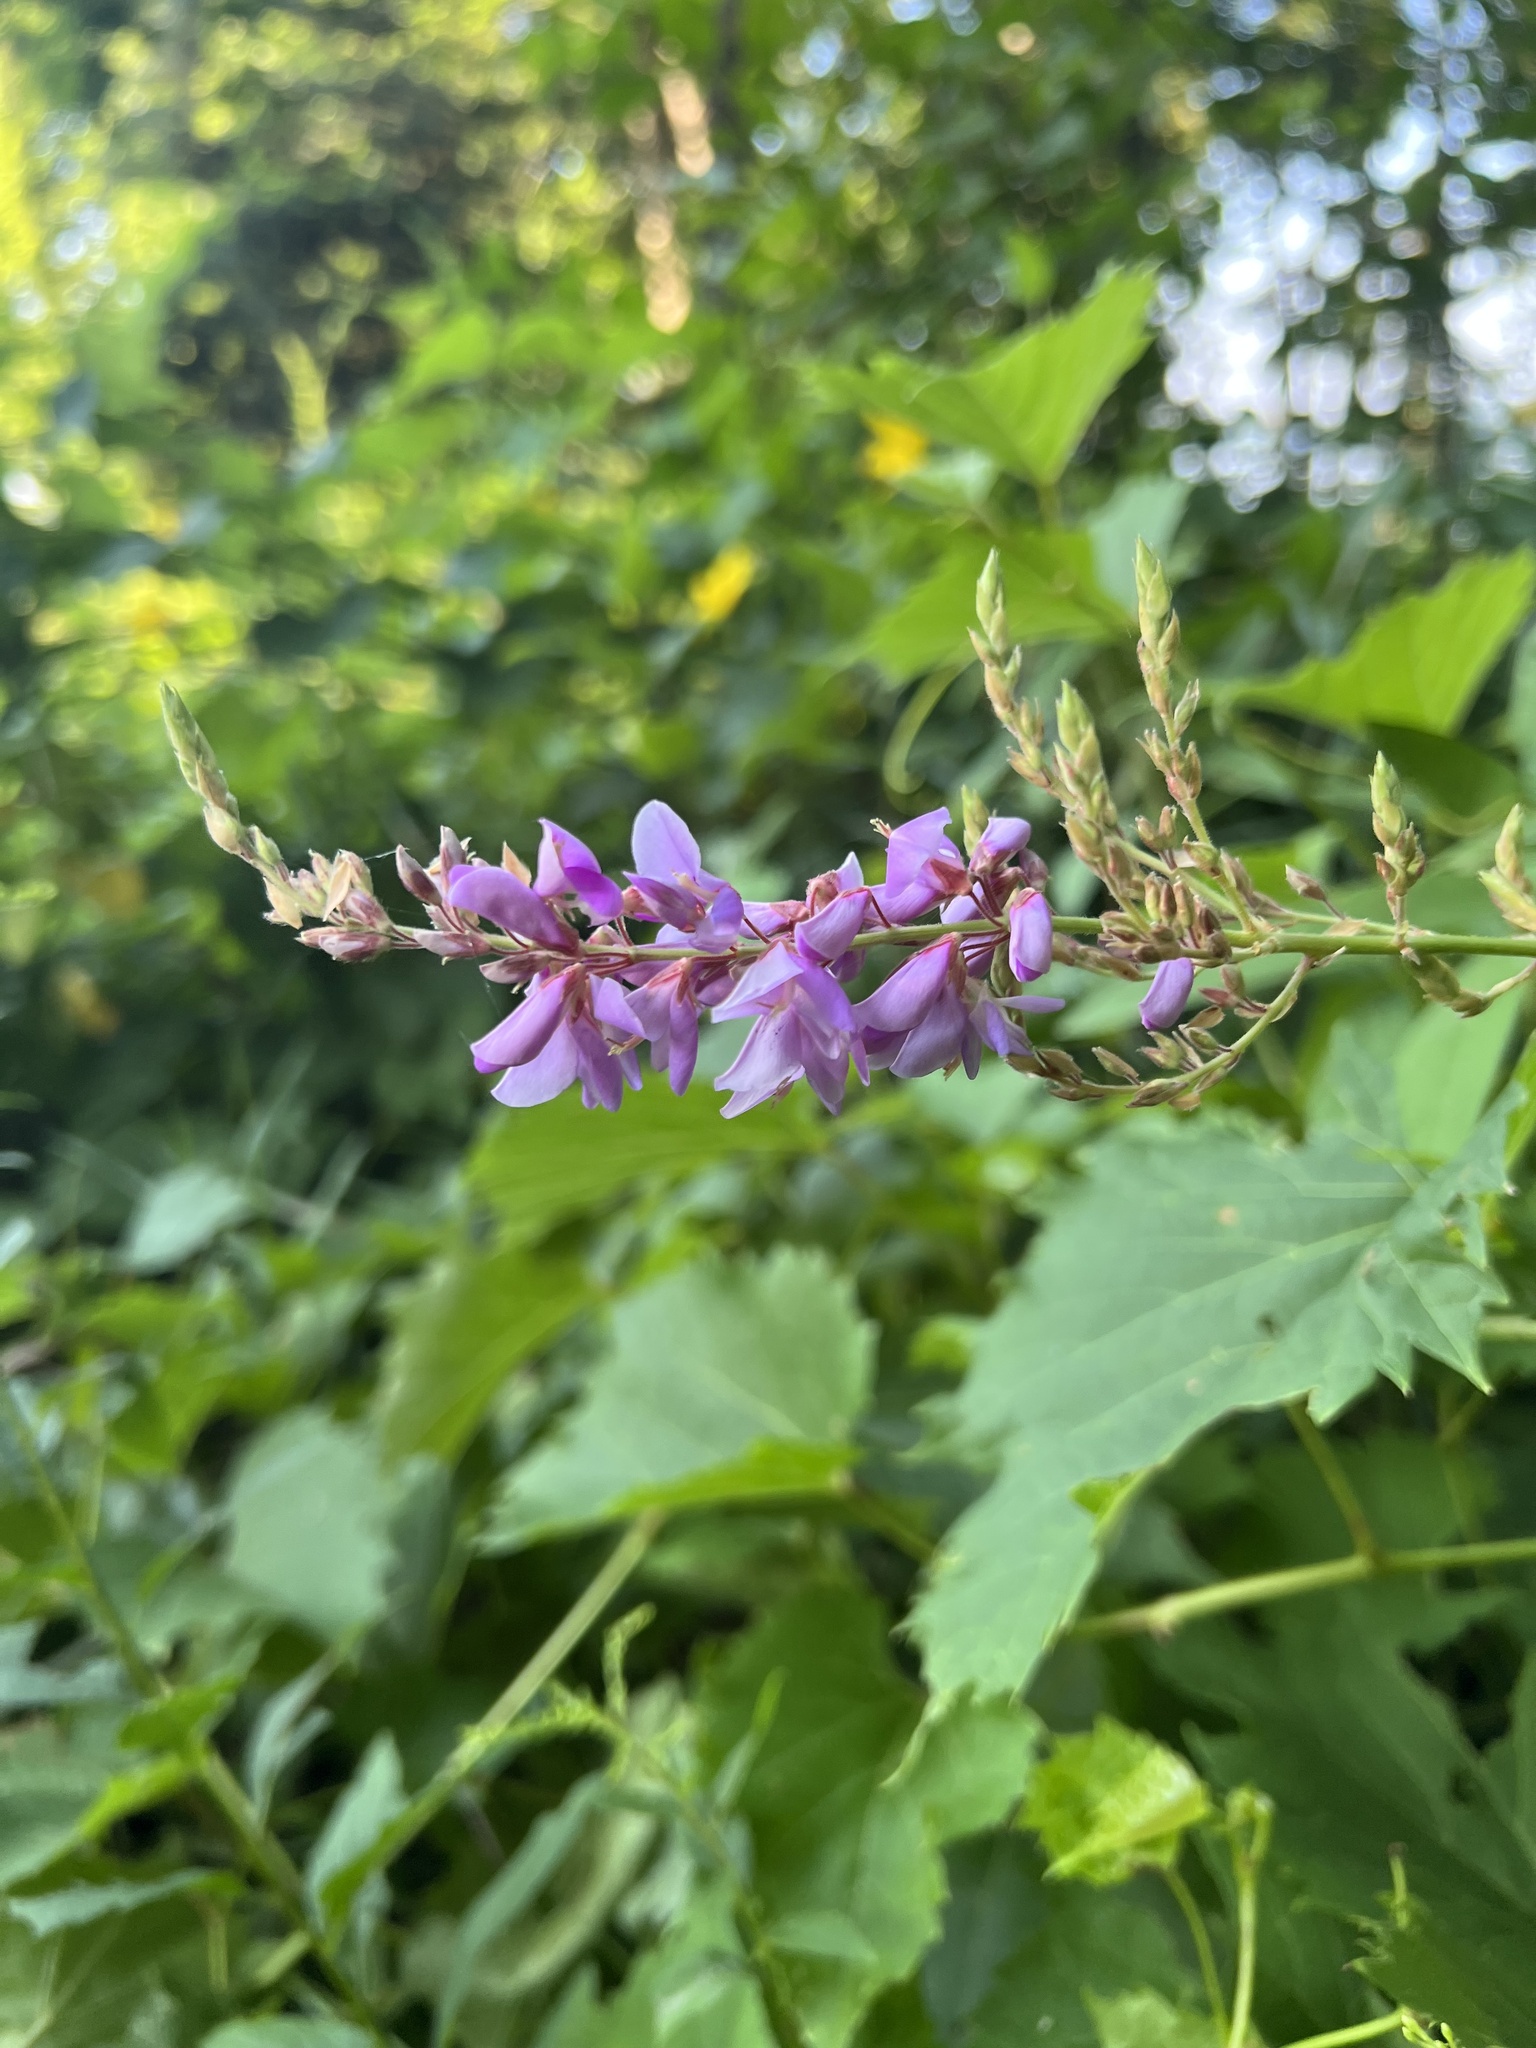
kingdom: Plantae
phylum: Tracheophyta
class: Magnoliopsida
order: Fabales
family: Fabaceae
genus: Desmodium
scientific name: Desmodium canadense
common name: Canada tick-trefoil
